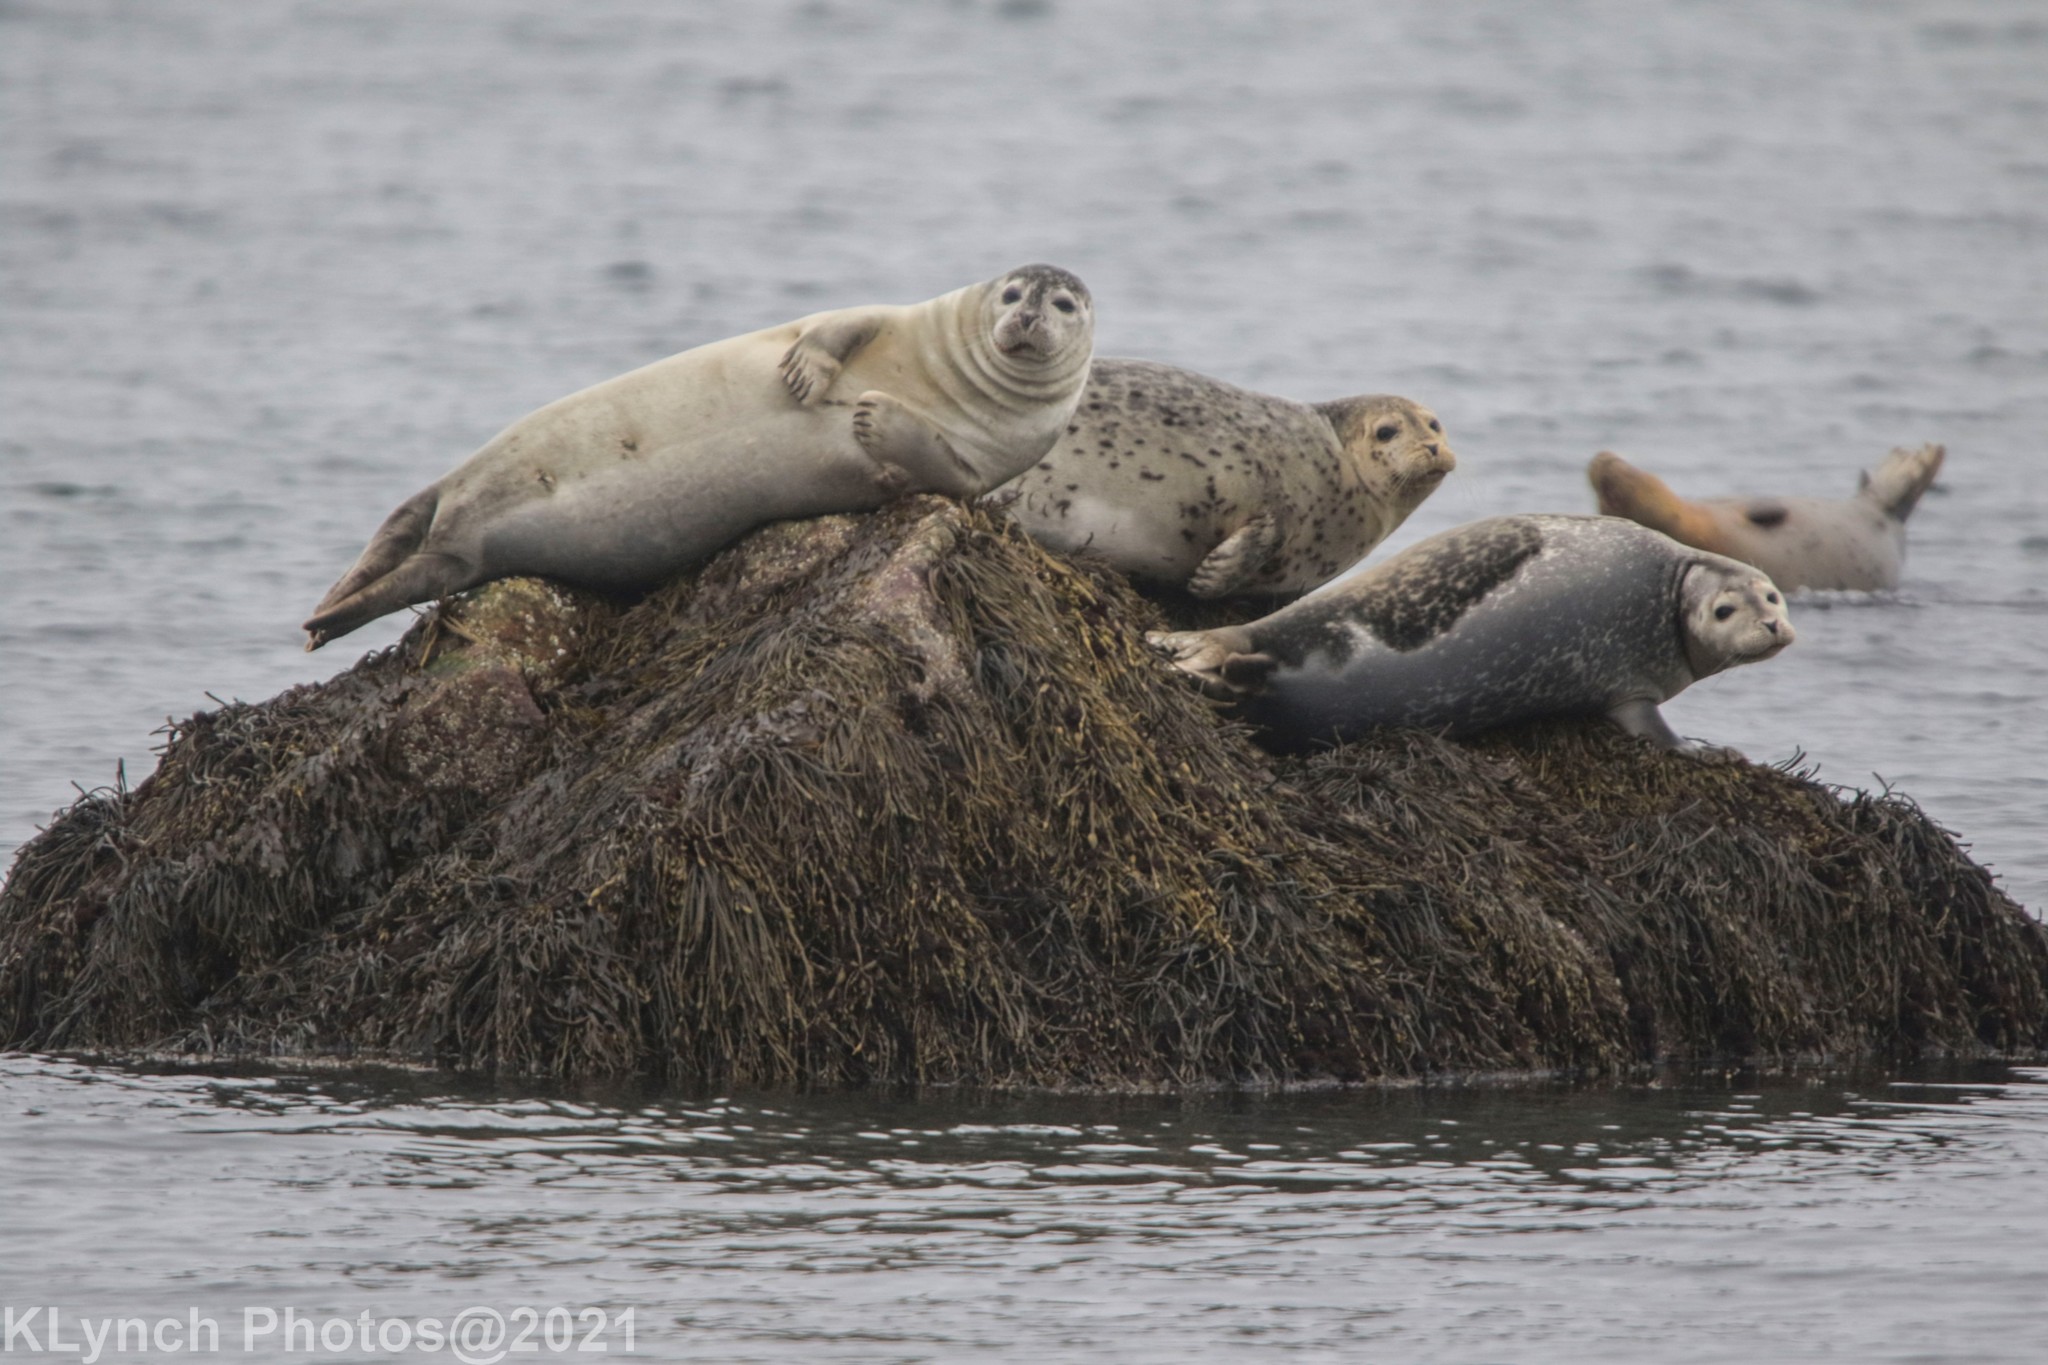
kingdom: Animalia
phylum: Chordata
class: Mammalia
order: Carnivora
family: Phocidae
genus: Phoca
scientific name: Phoca vitulina
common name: Harbor seal
